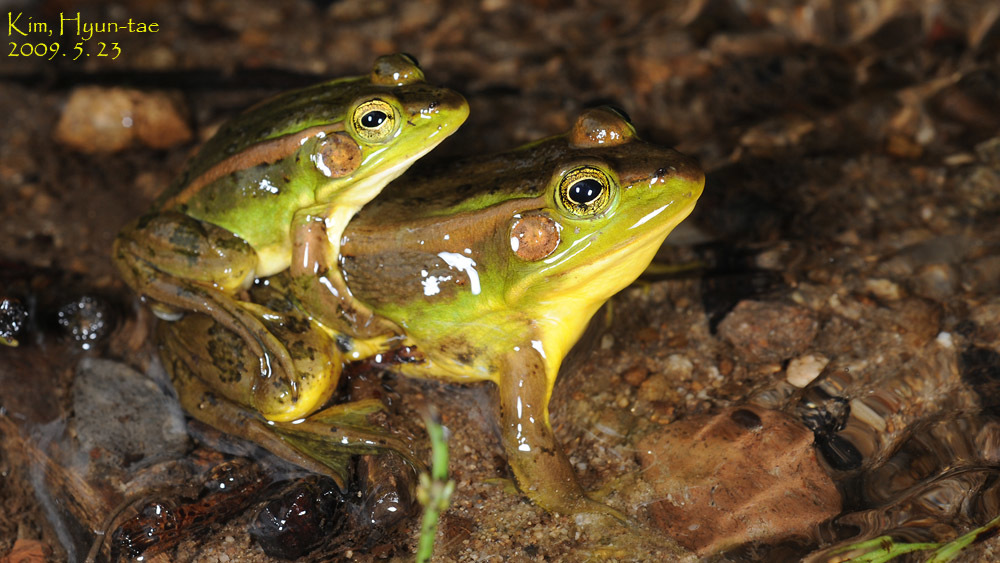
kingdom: Animalia
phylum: Chordata
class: Amphibia
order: Anura
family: Ranidae
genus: Pelophylax
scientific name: Pelophylax chosenicus
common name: Gold-spotted pond frog
